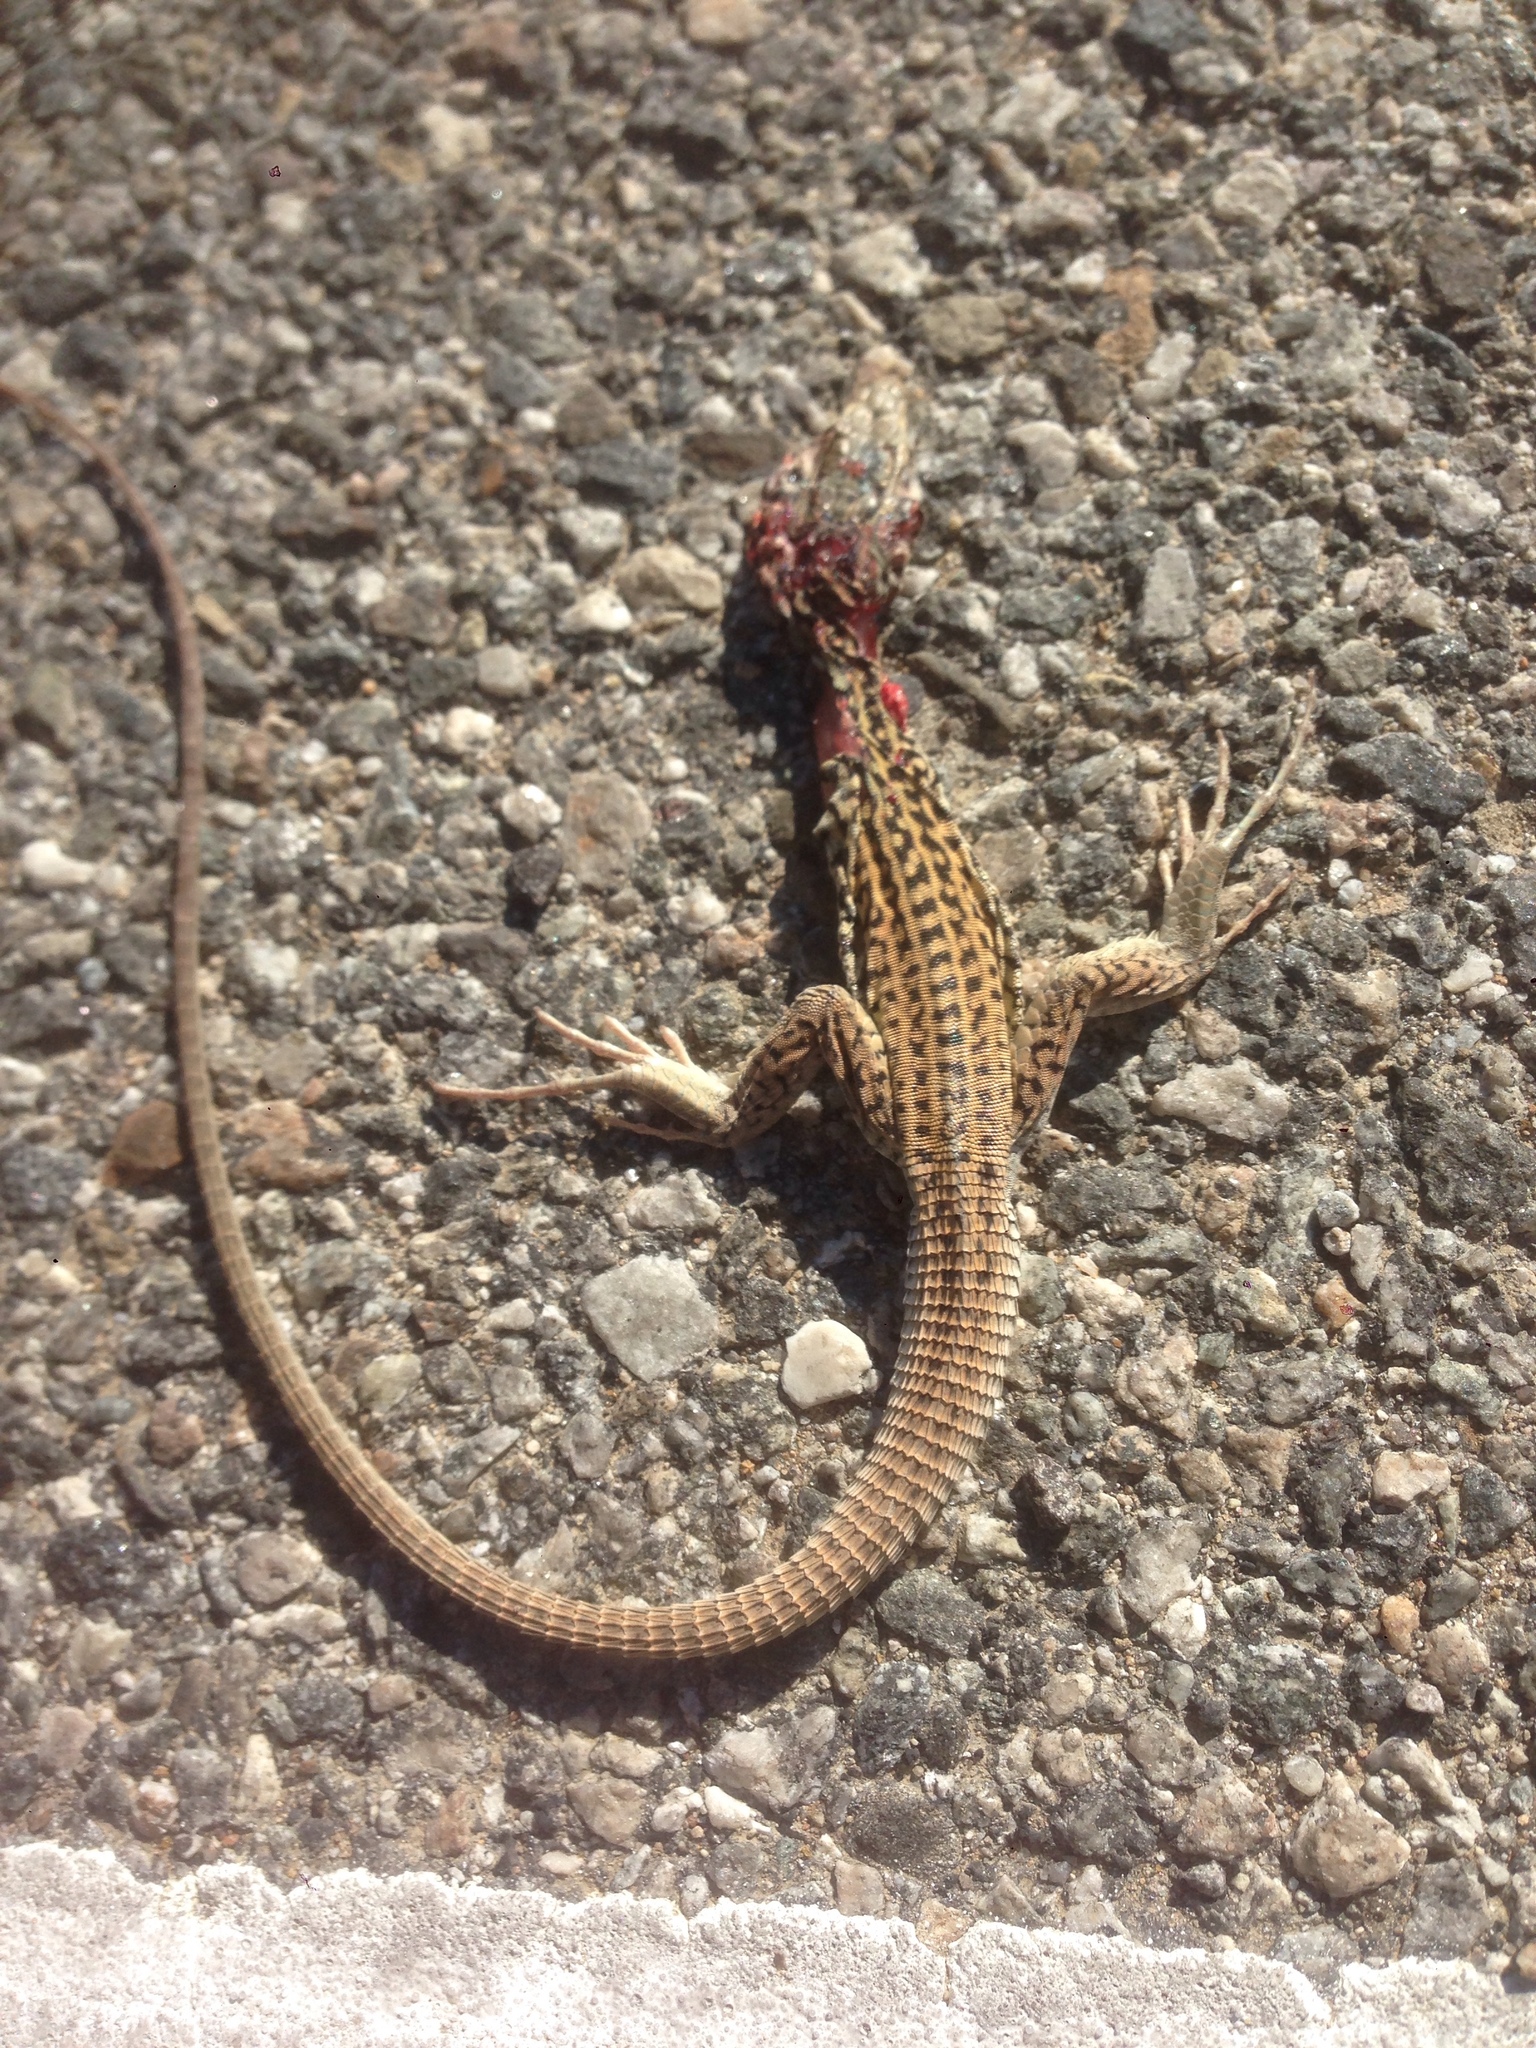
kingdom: Animalia
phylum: Chordata
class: Squamata
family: Teiidae
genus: Aspidoscelis
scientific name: Aspidoscelis tigris
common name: Tiger whiptail
